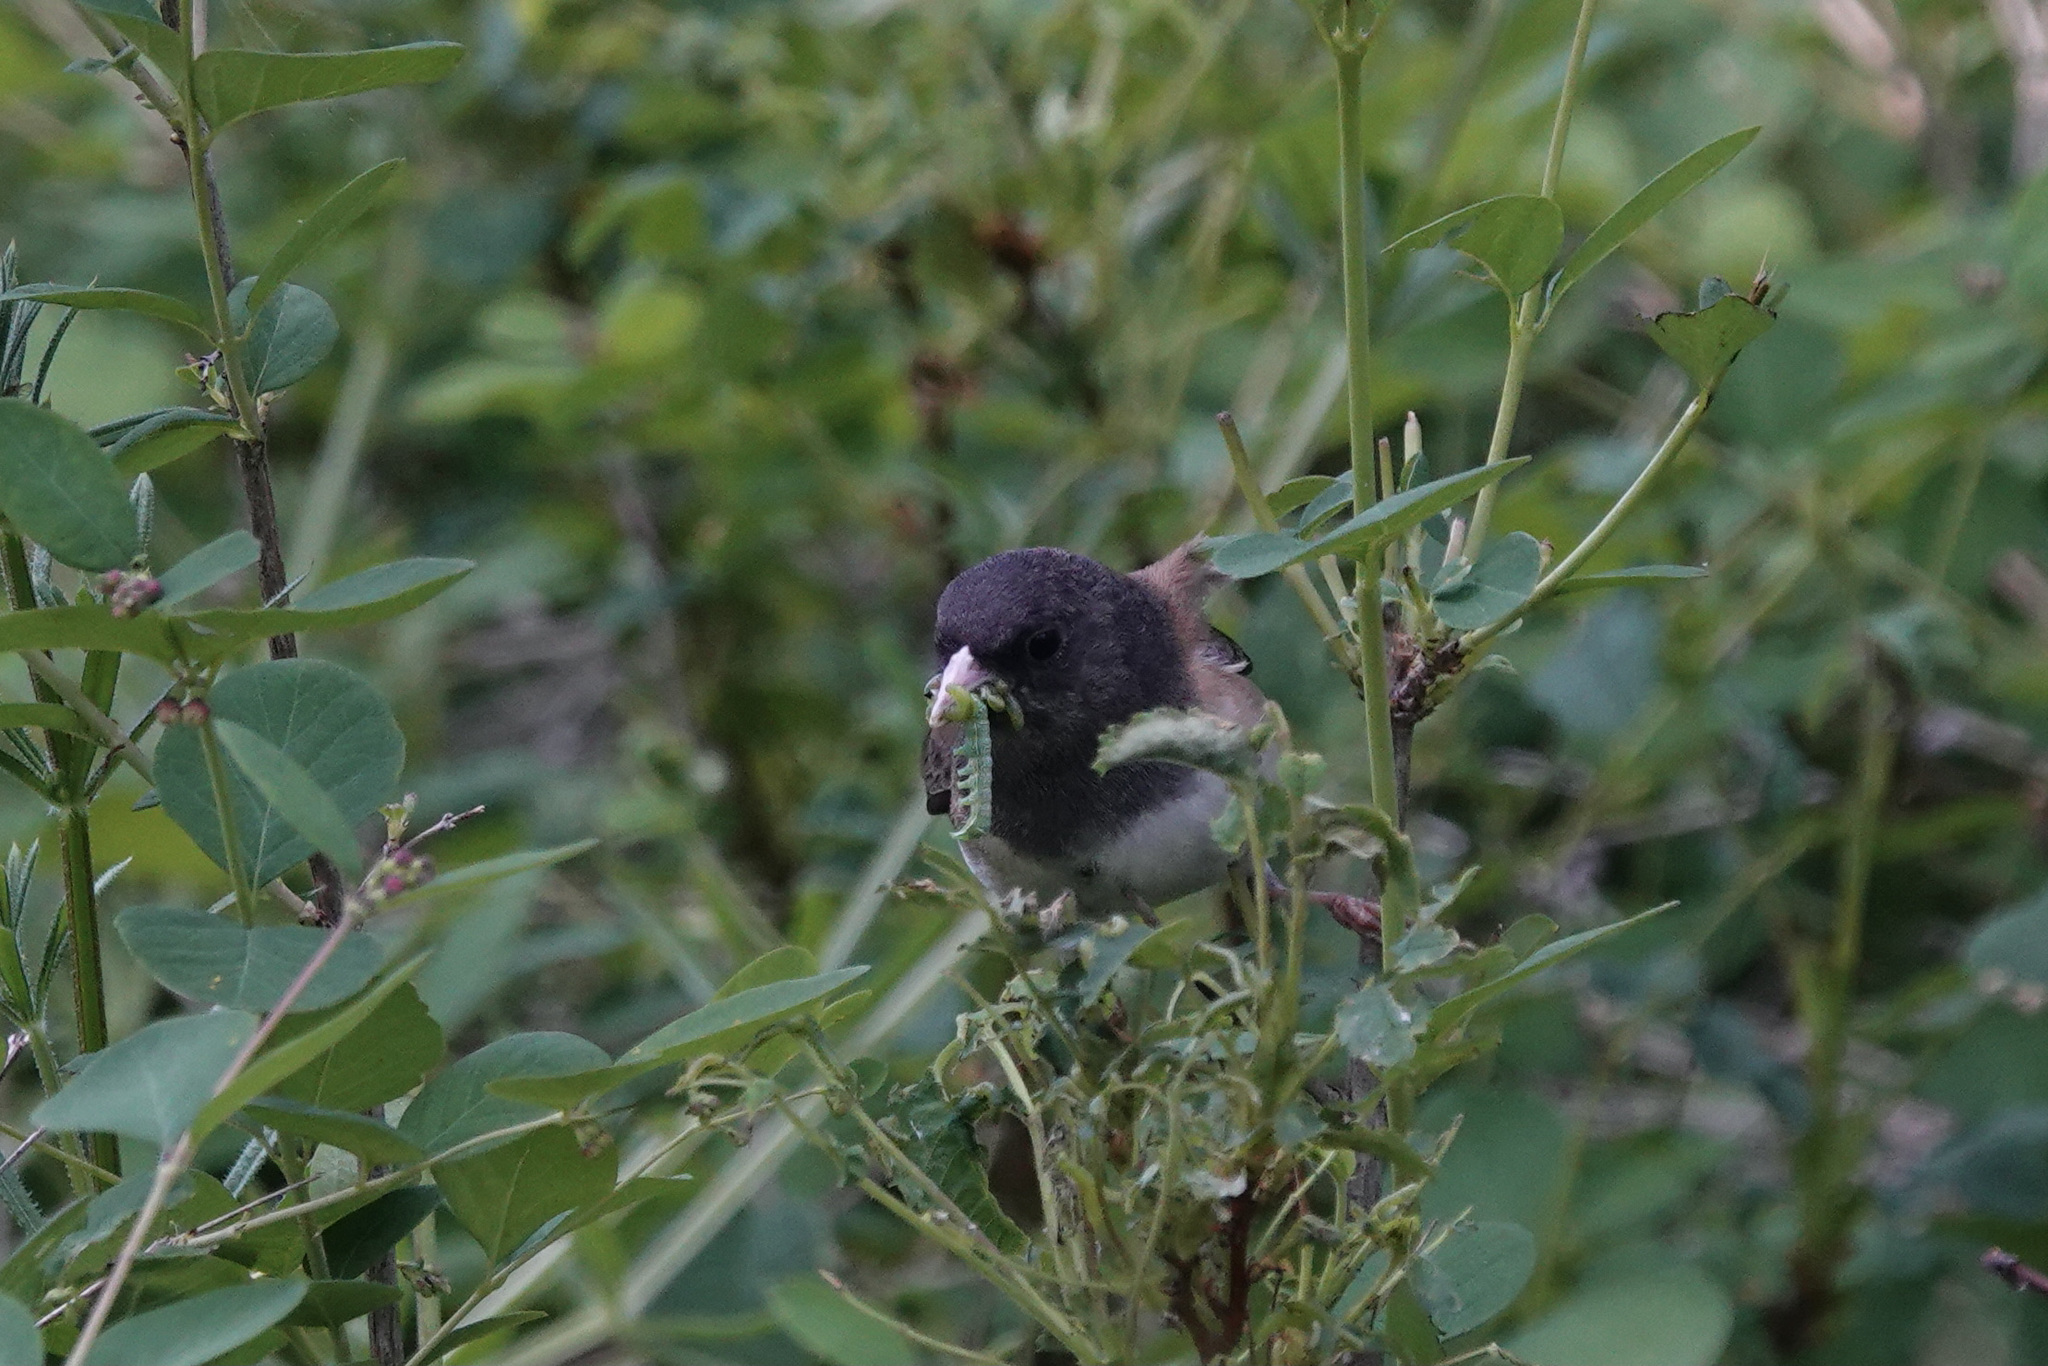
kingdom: Animalia
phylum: Chordata
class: Aves
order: Passeriformes
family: Passerellidae
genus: Junco
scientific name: Junco hyemalis
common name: Dark-eyed junco
